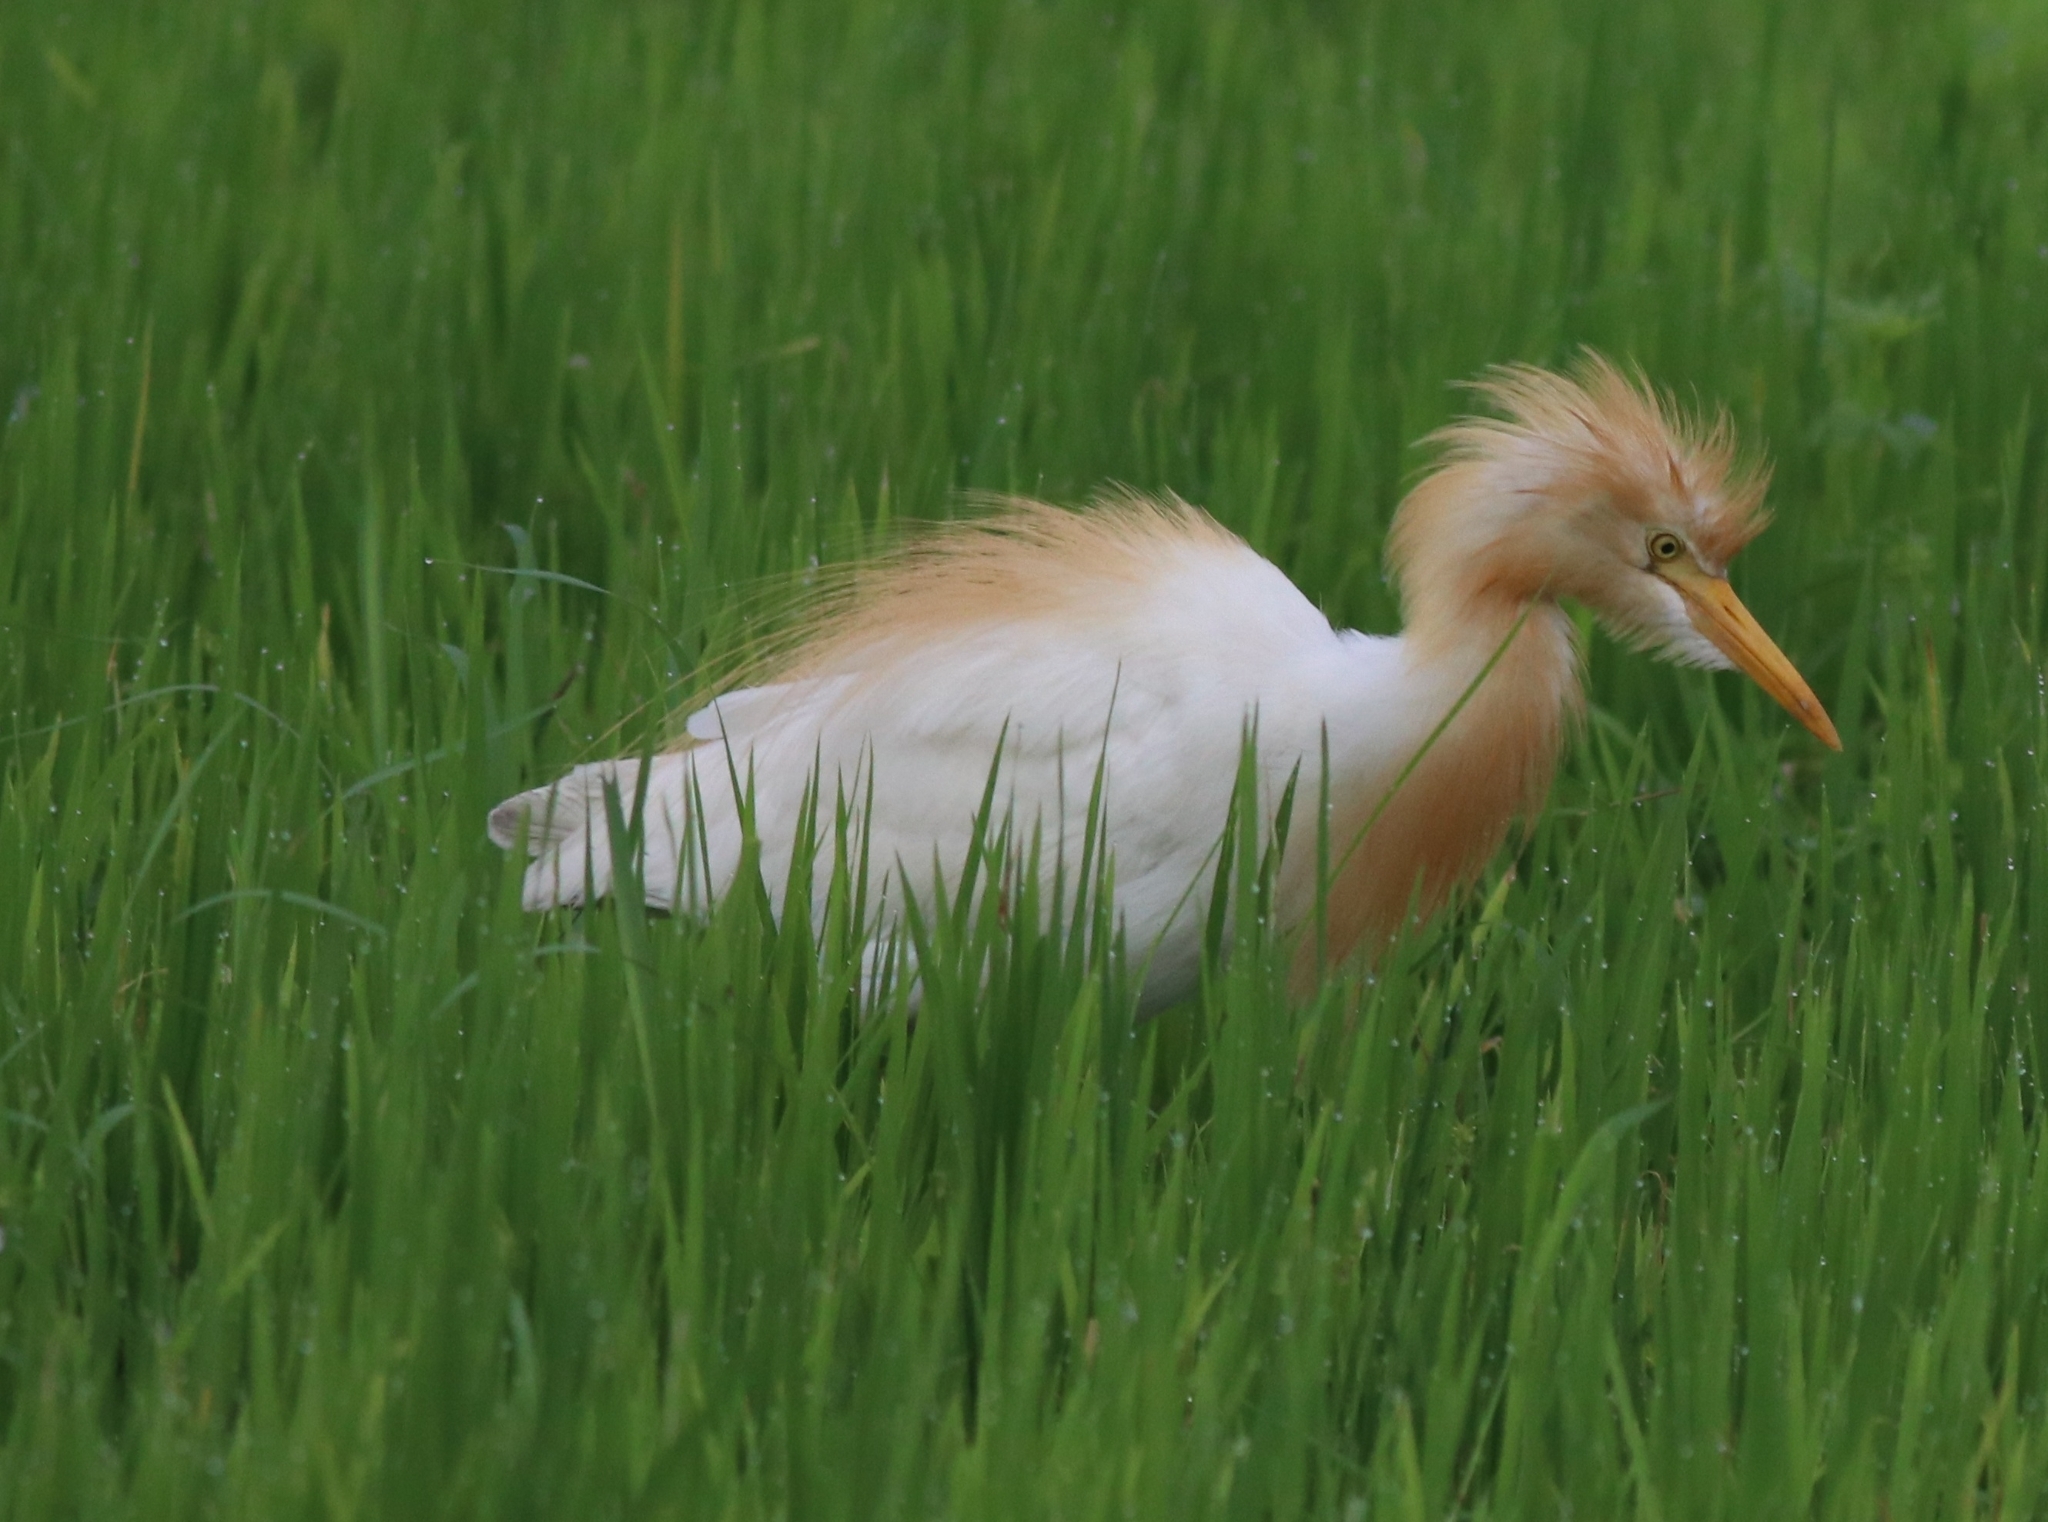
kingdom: Animalia
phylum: Chordata
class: Aves
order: Pelecaniformes
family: Ardeidae
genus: Bubulcus
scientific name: Bubulcus coromandus
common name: Eastern cattle egret
